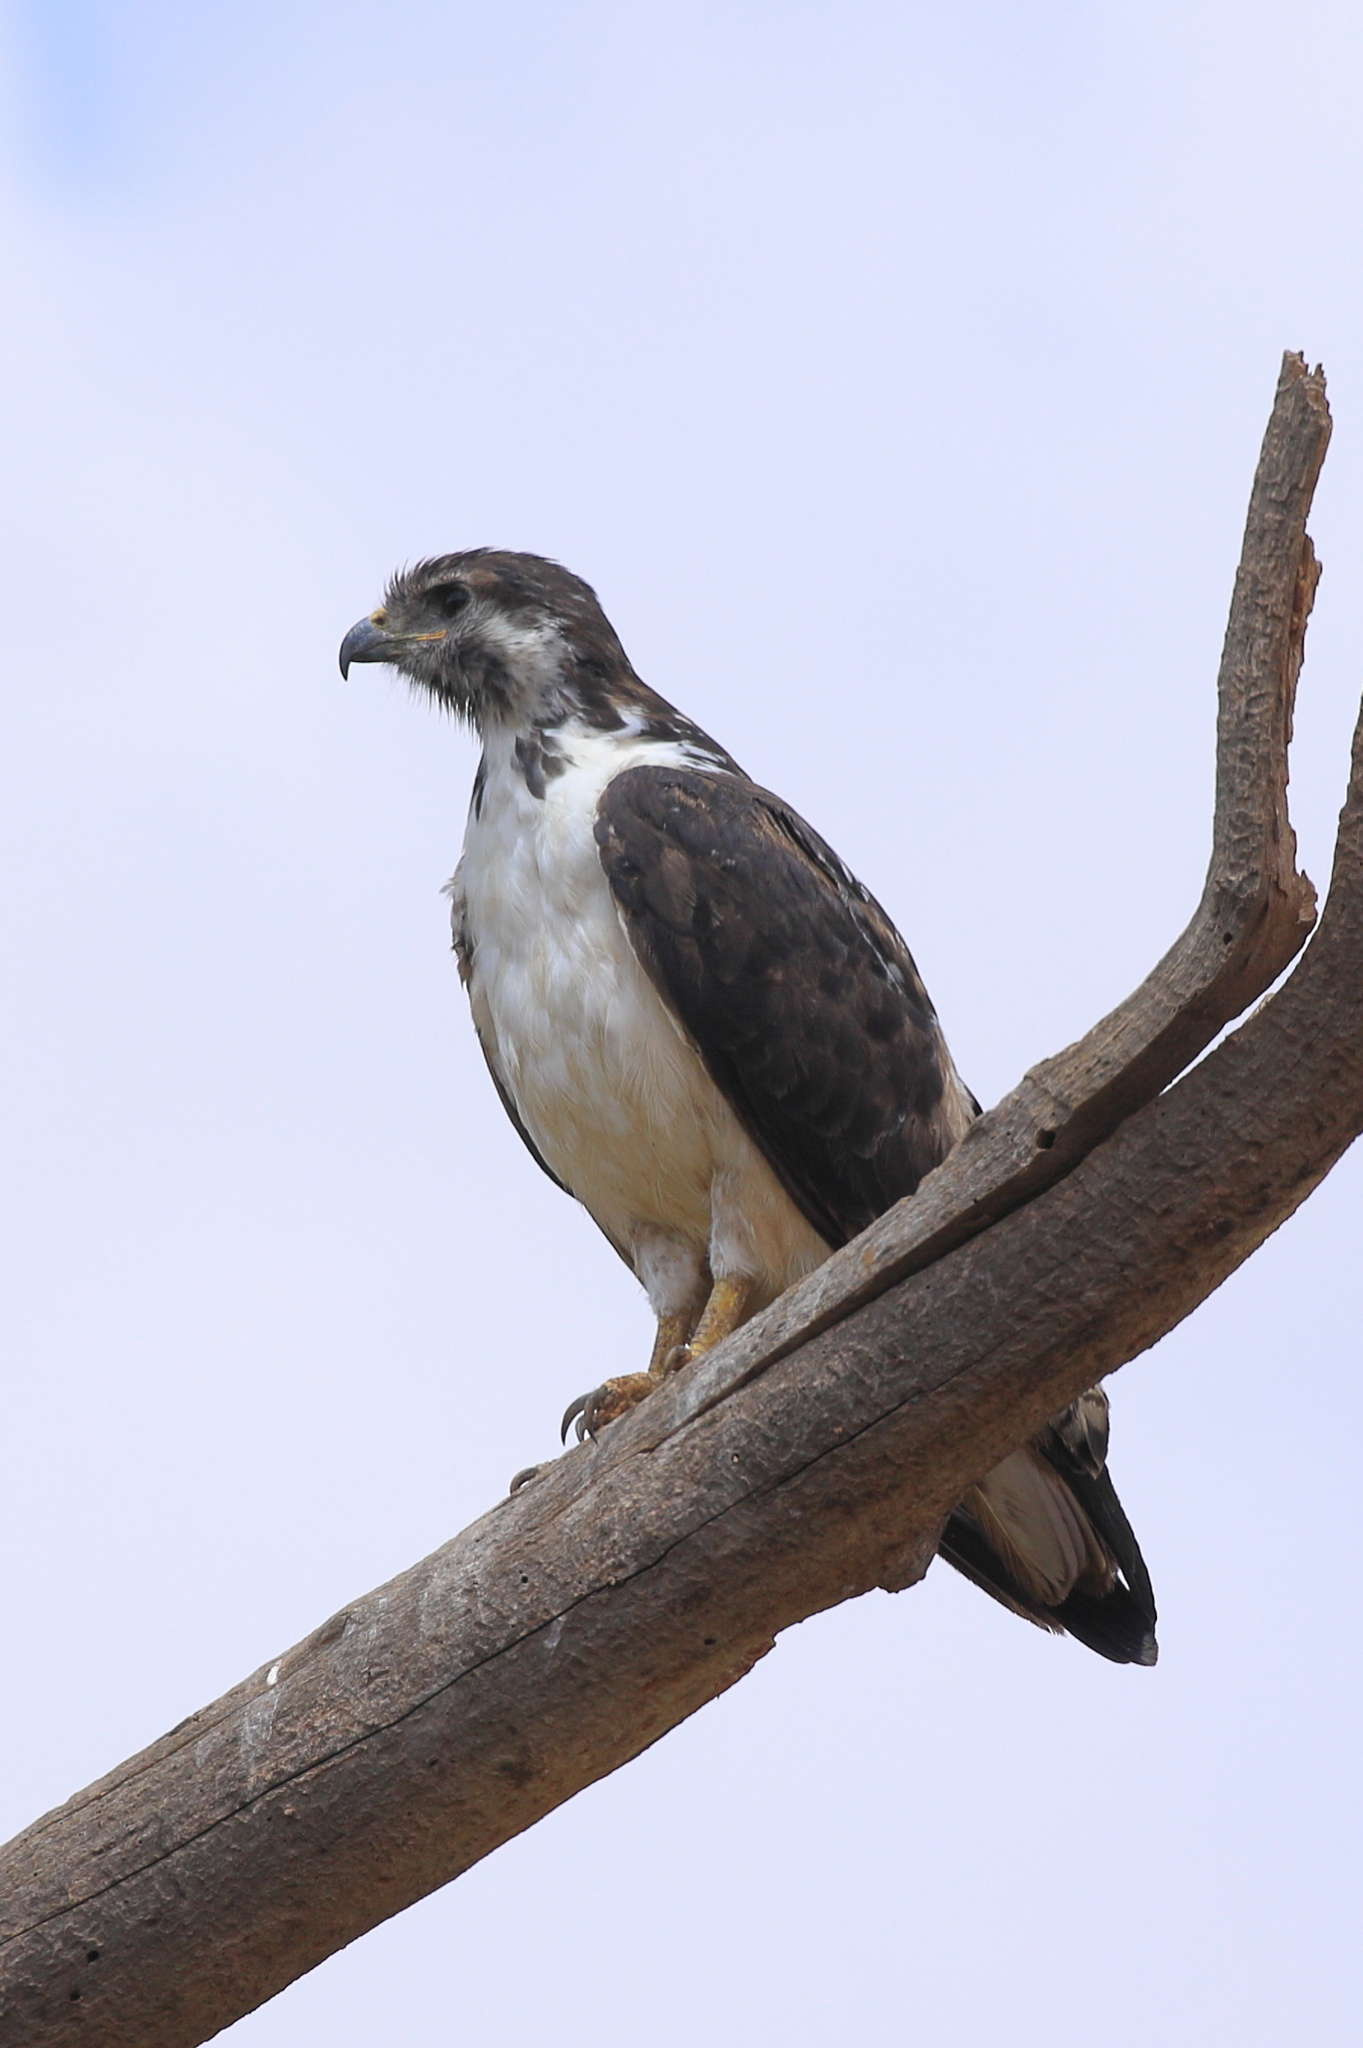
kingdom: Animalia
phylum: Chordata
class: Aves
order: Accipitriformes
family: Accipitridae
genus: Buteo
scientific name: Buteo augur
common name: Augur buzzard
